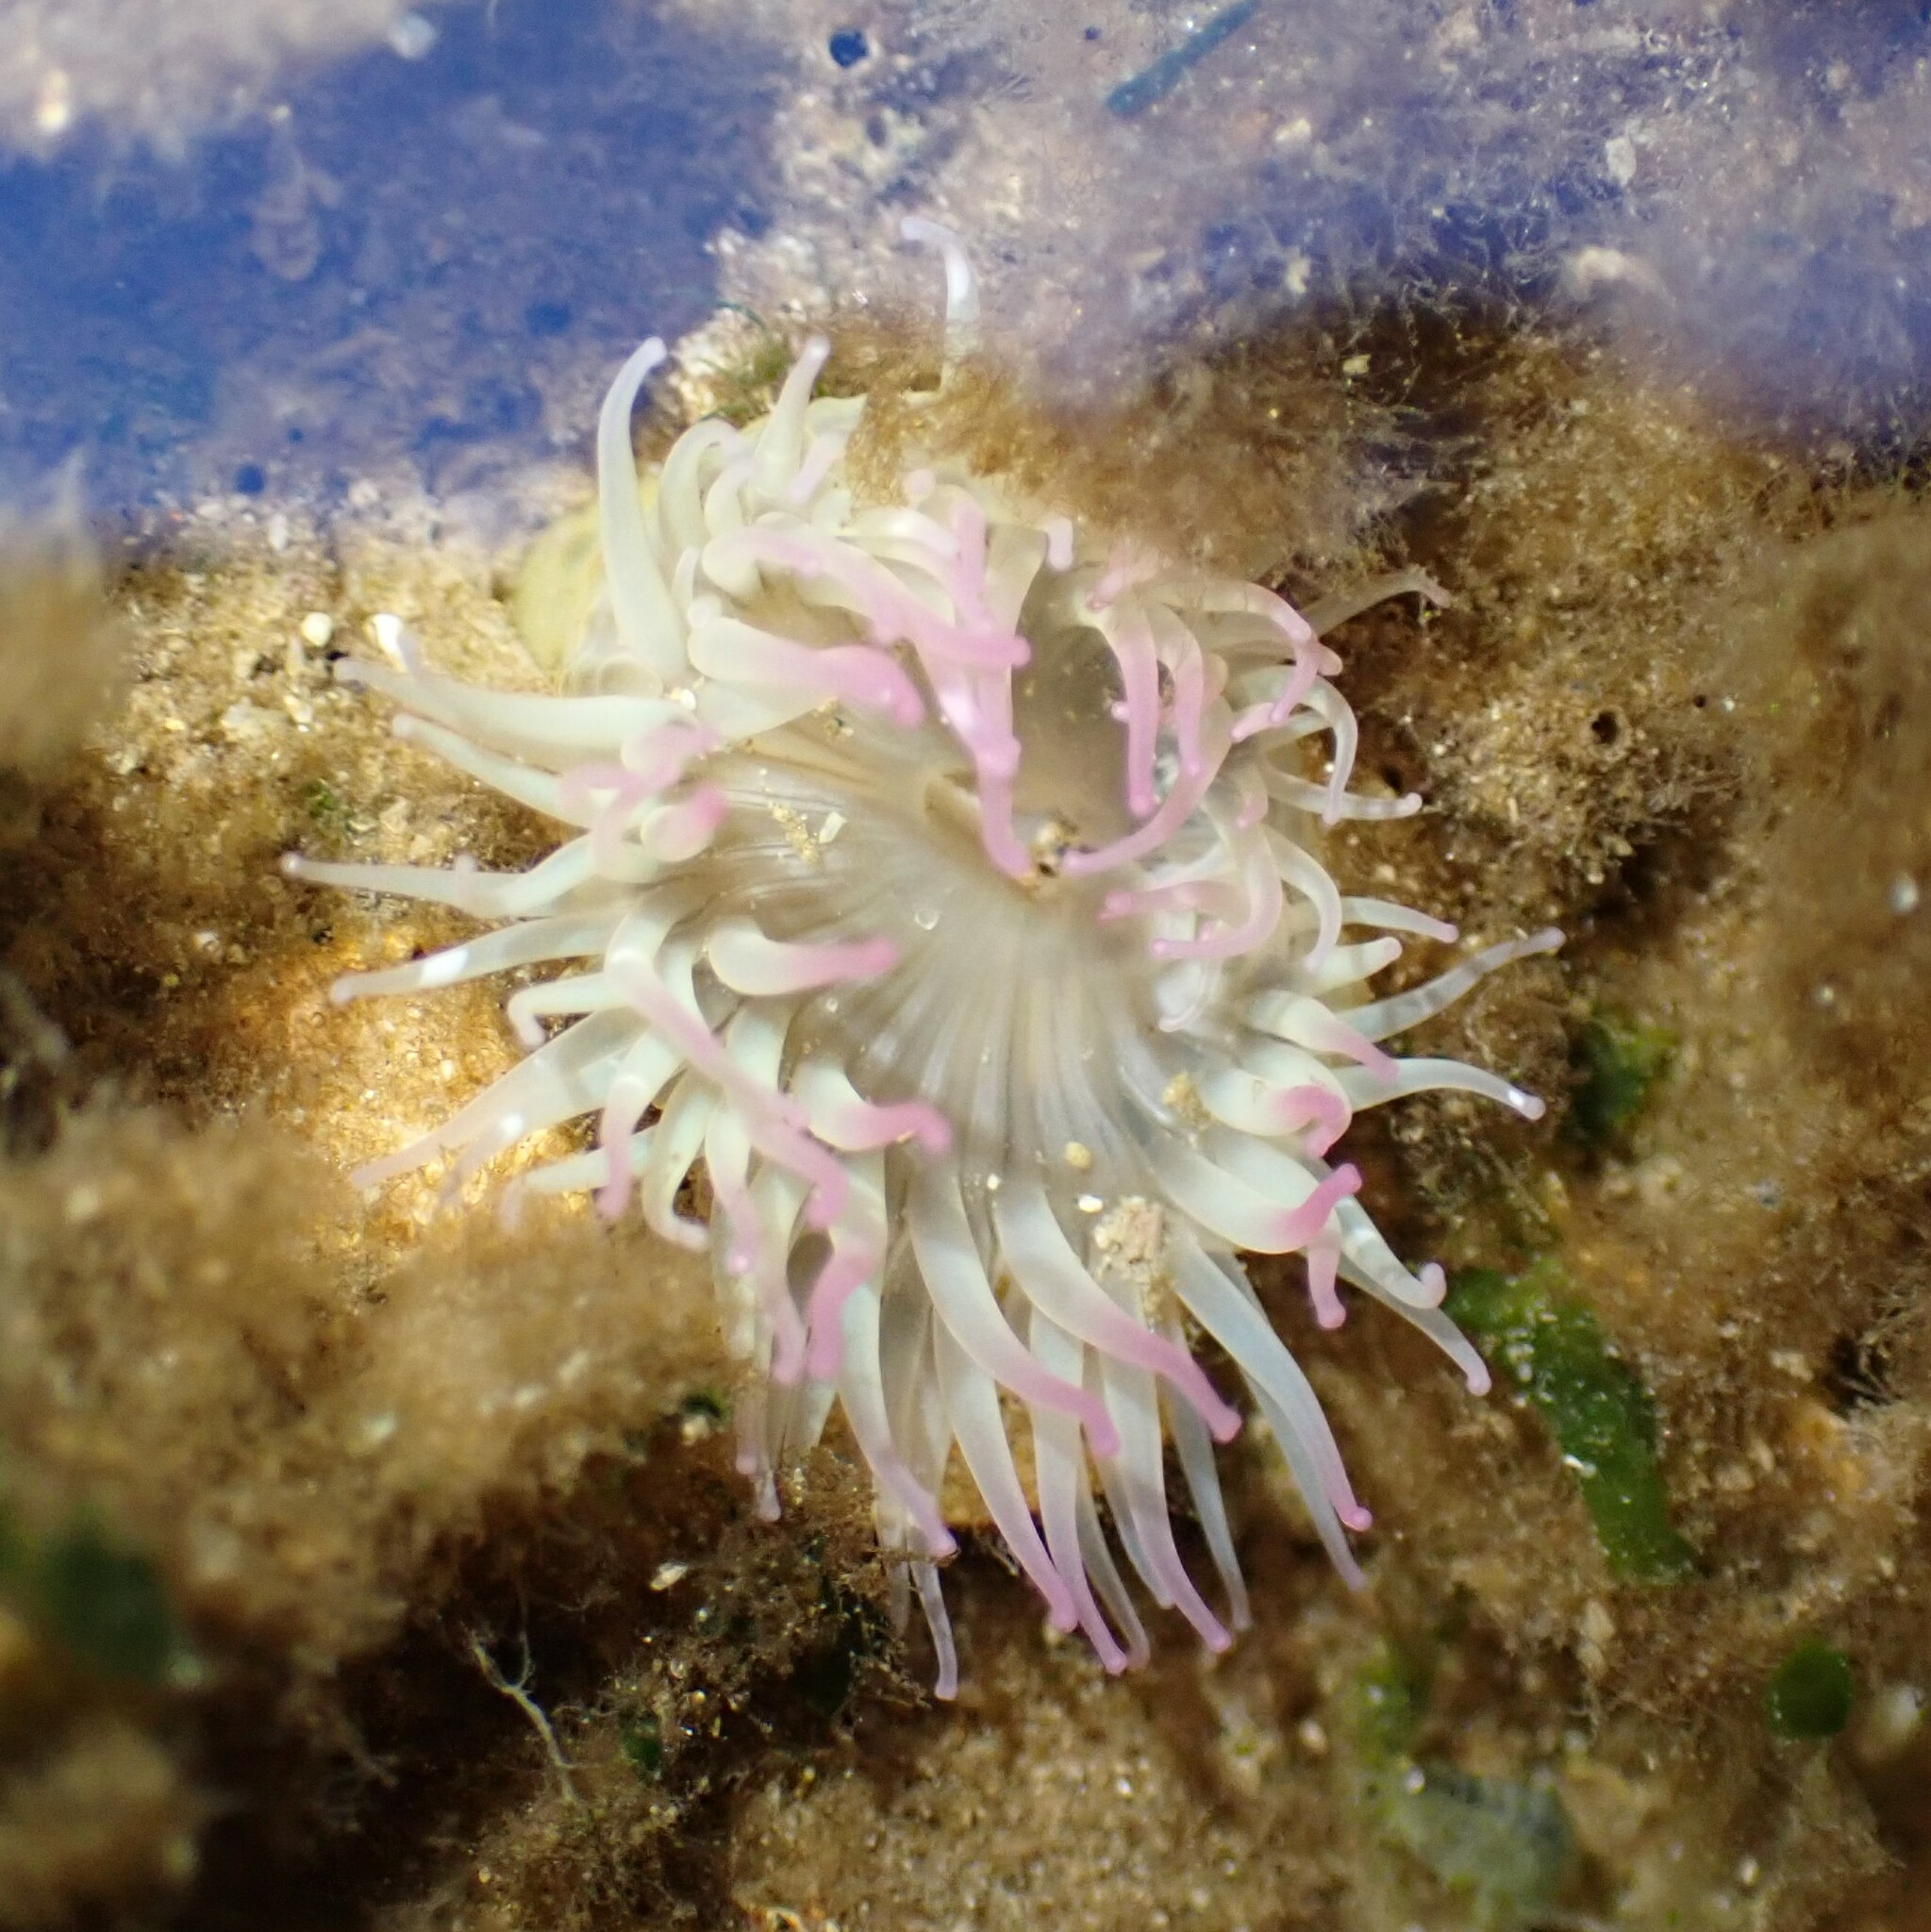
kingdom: Animalia
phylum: Cnidaria
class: Anthozoa
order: Actiniaria
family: Actiniidae
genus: Anthopleura
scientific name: Anthopleura elegantissima
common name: Clonal anemone
